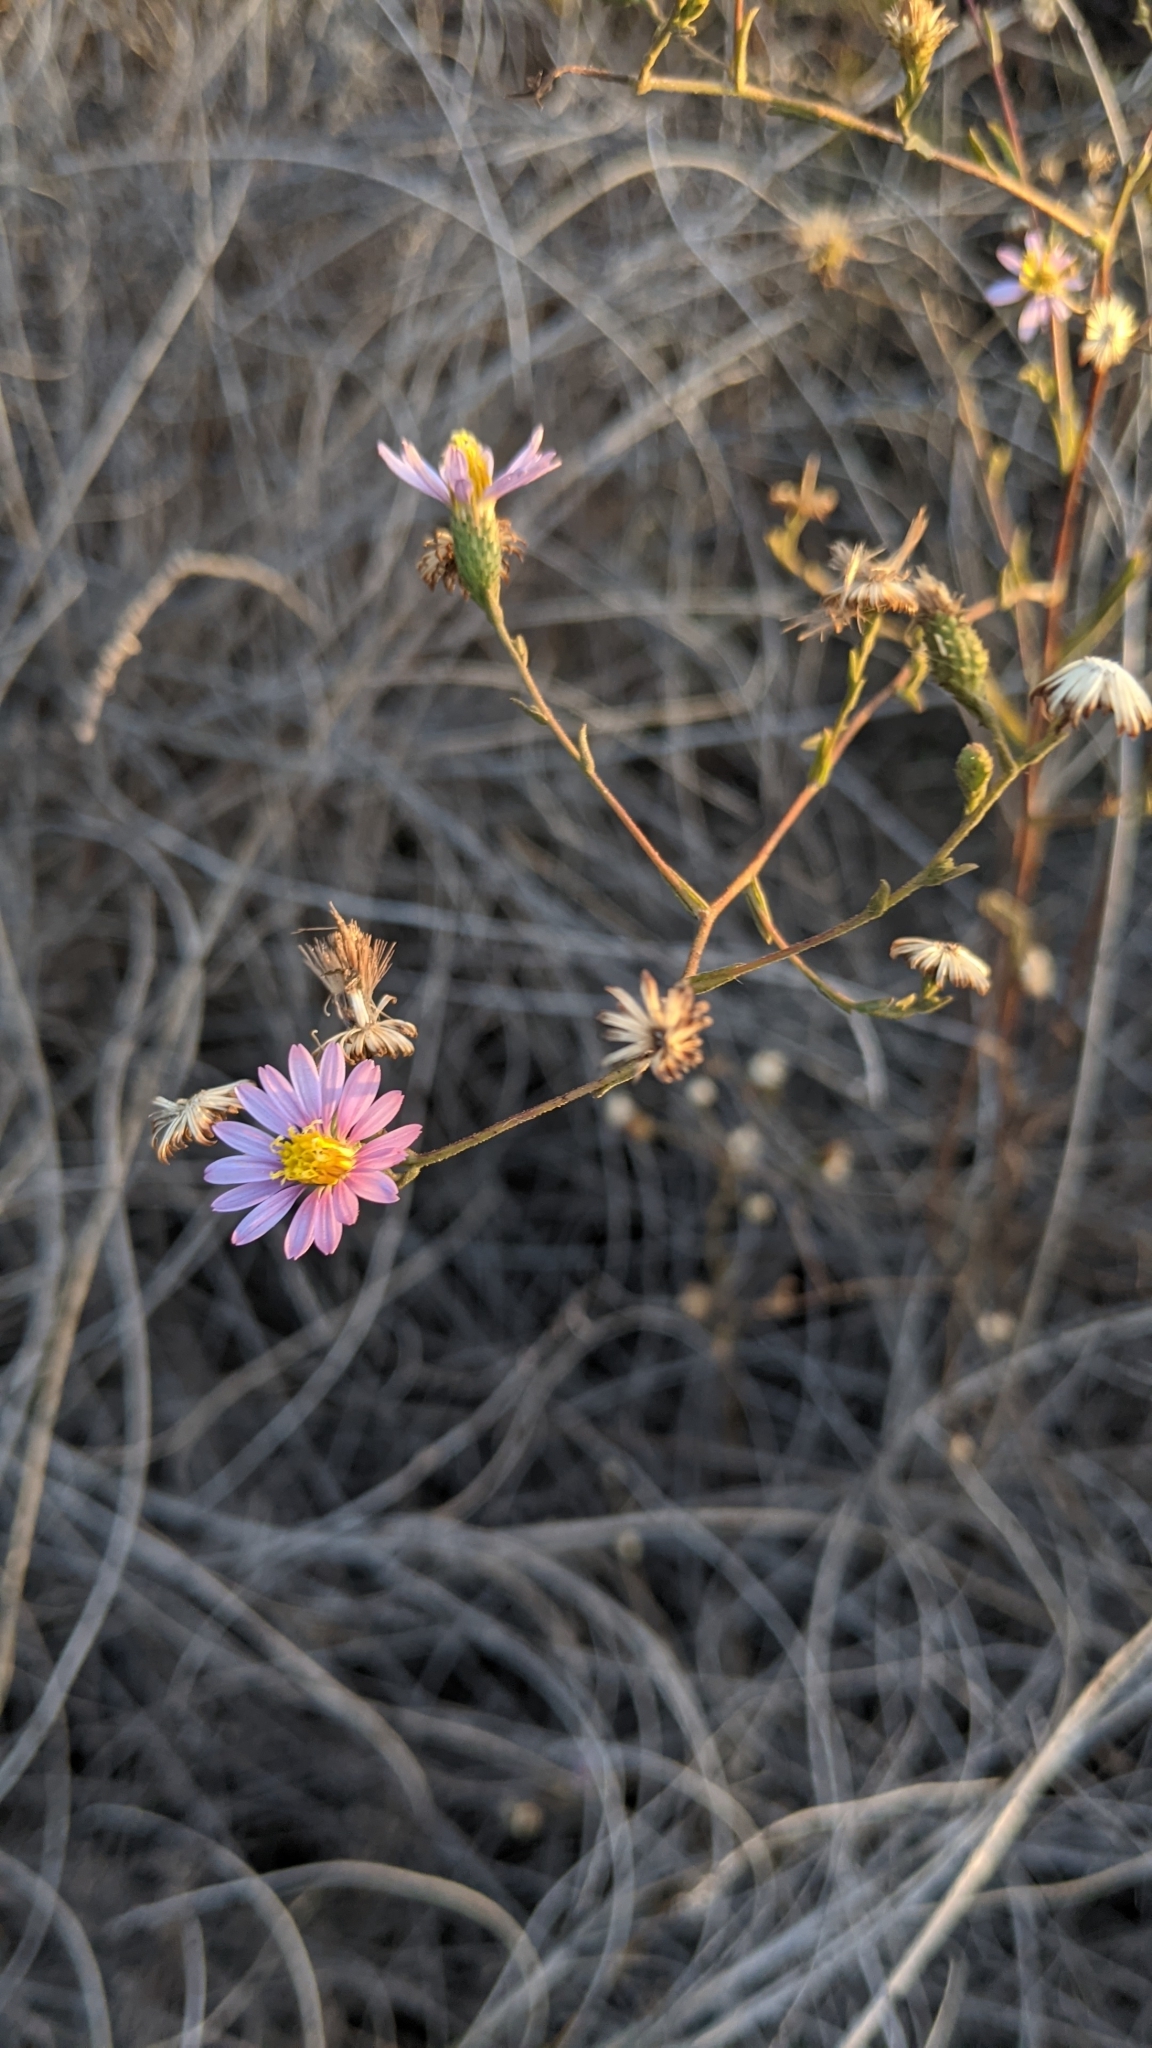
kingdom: Plantae
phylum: Tracheophyta
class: Magnoliopsida
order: Asterales
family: Asteraceae
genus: Corethrogyne
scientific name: Corethrogyne filaginifolia
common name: Sand-aster
